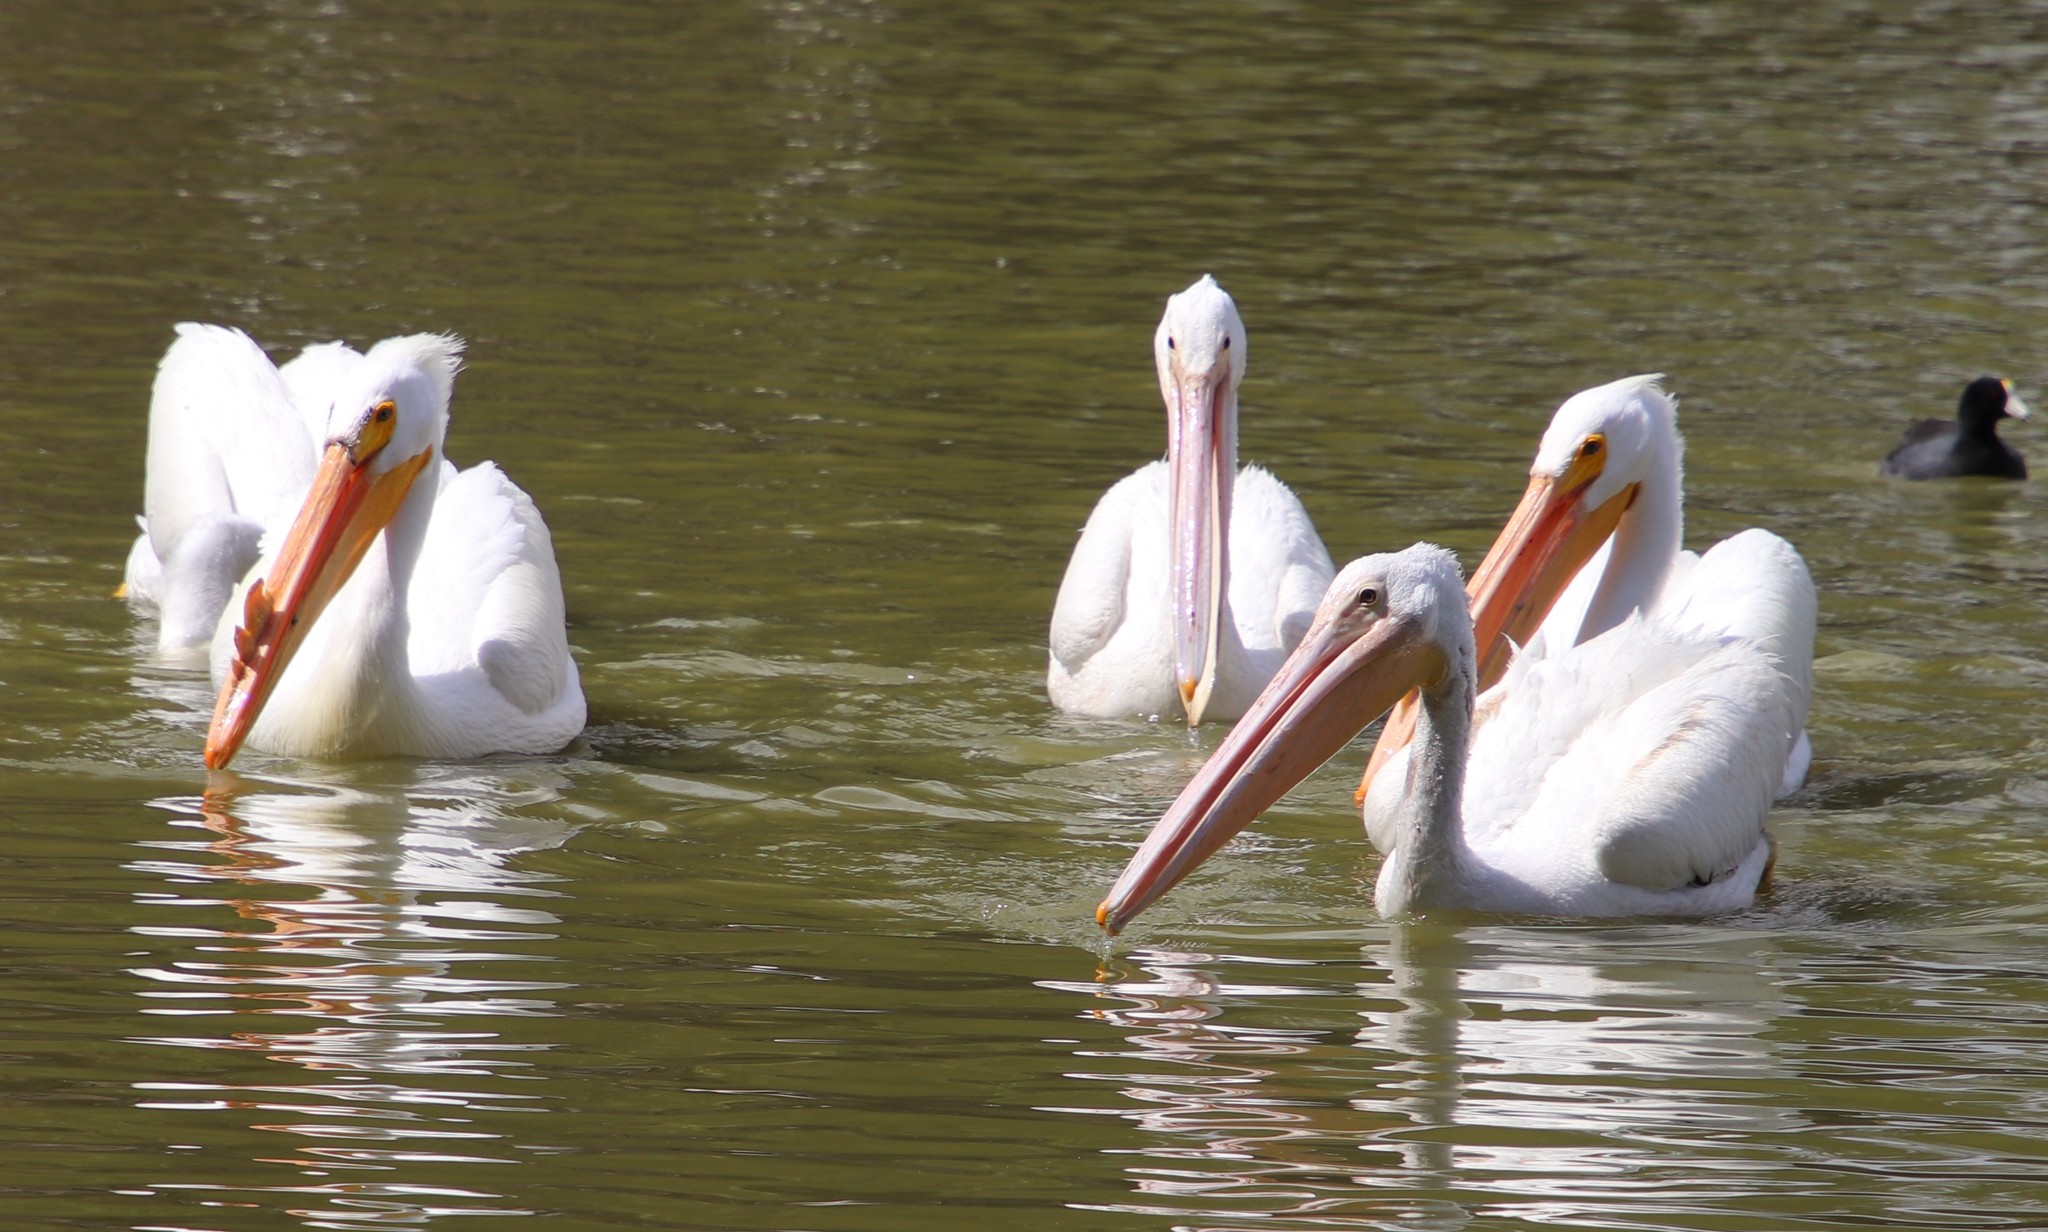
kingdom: Animalia
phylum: Chordata
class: Aves
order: Pelecaniformes
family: Pelecanidae
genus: Pelecanus
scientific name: Pelecanus erythrorhynchos
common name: American white pelican
